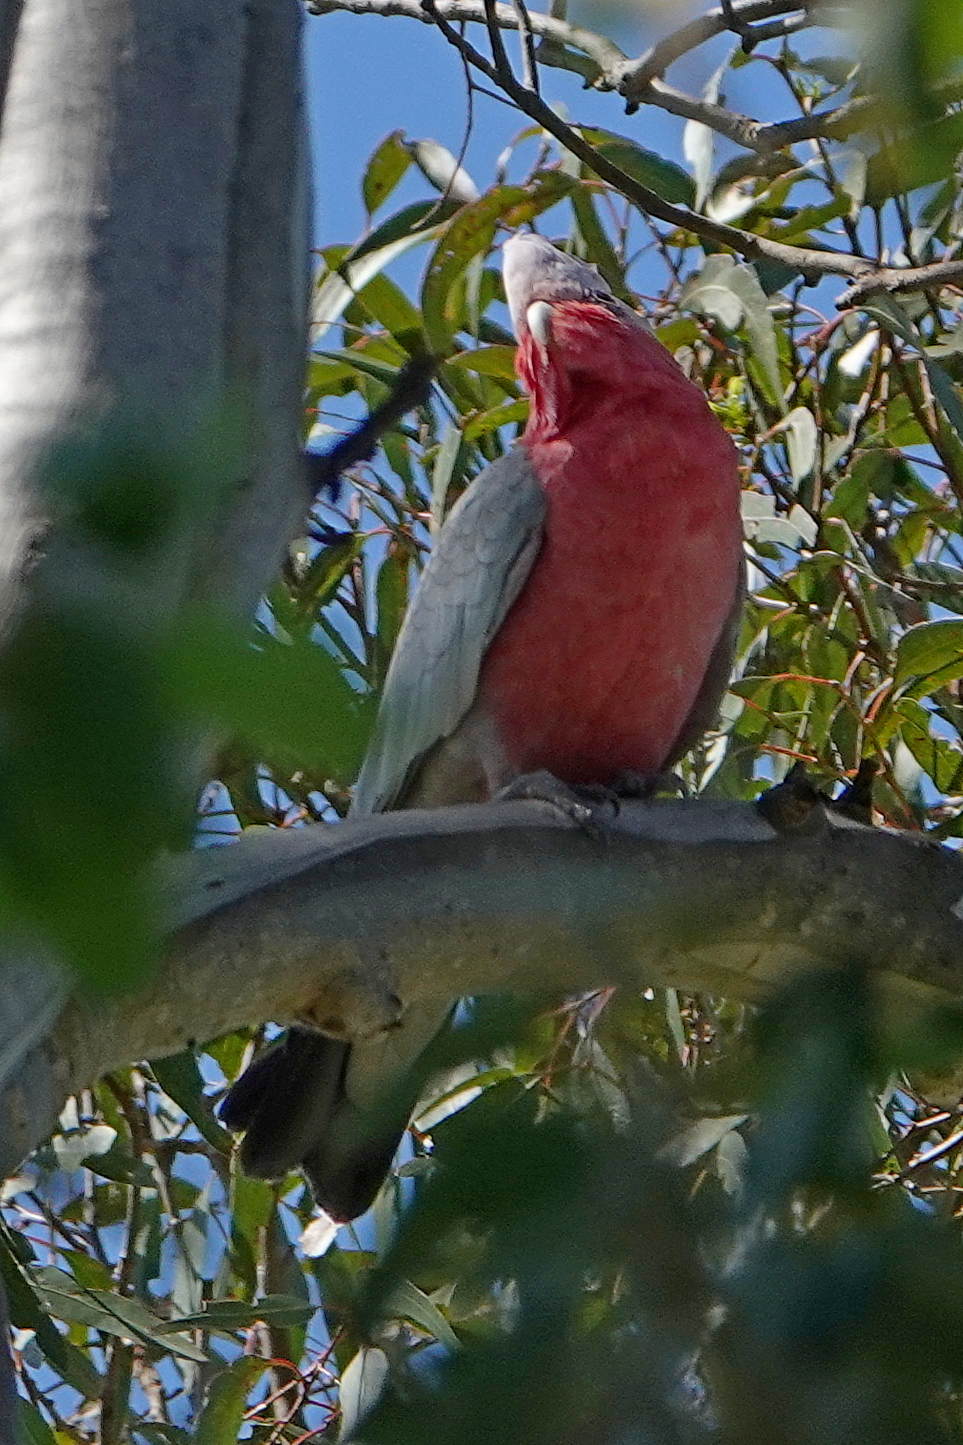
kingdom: Animalia
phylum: Chordata
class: Aves
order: Psittaciformes
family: Psittacidae
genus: Eolophus
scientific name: Eolophus roseicapilla
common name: Galah
